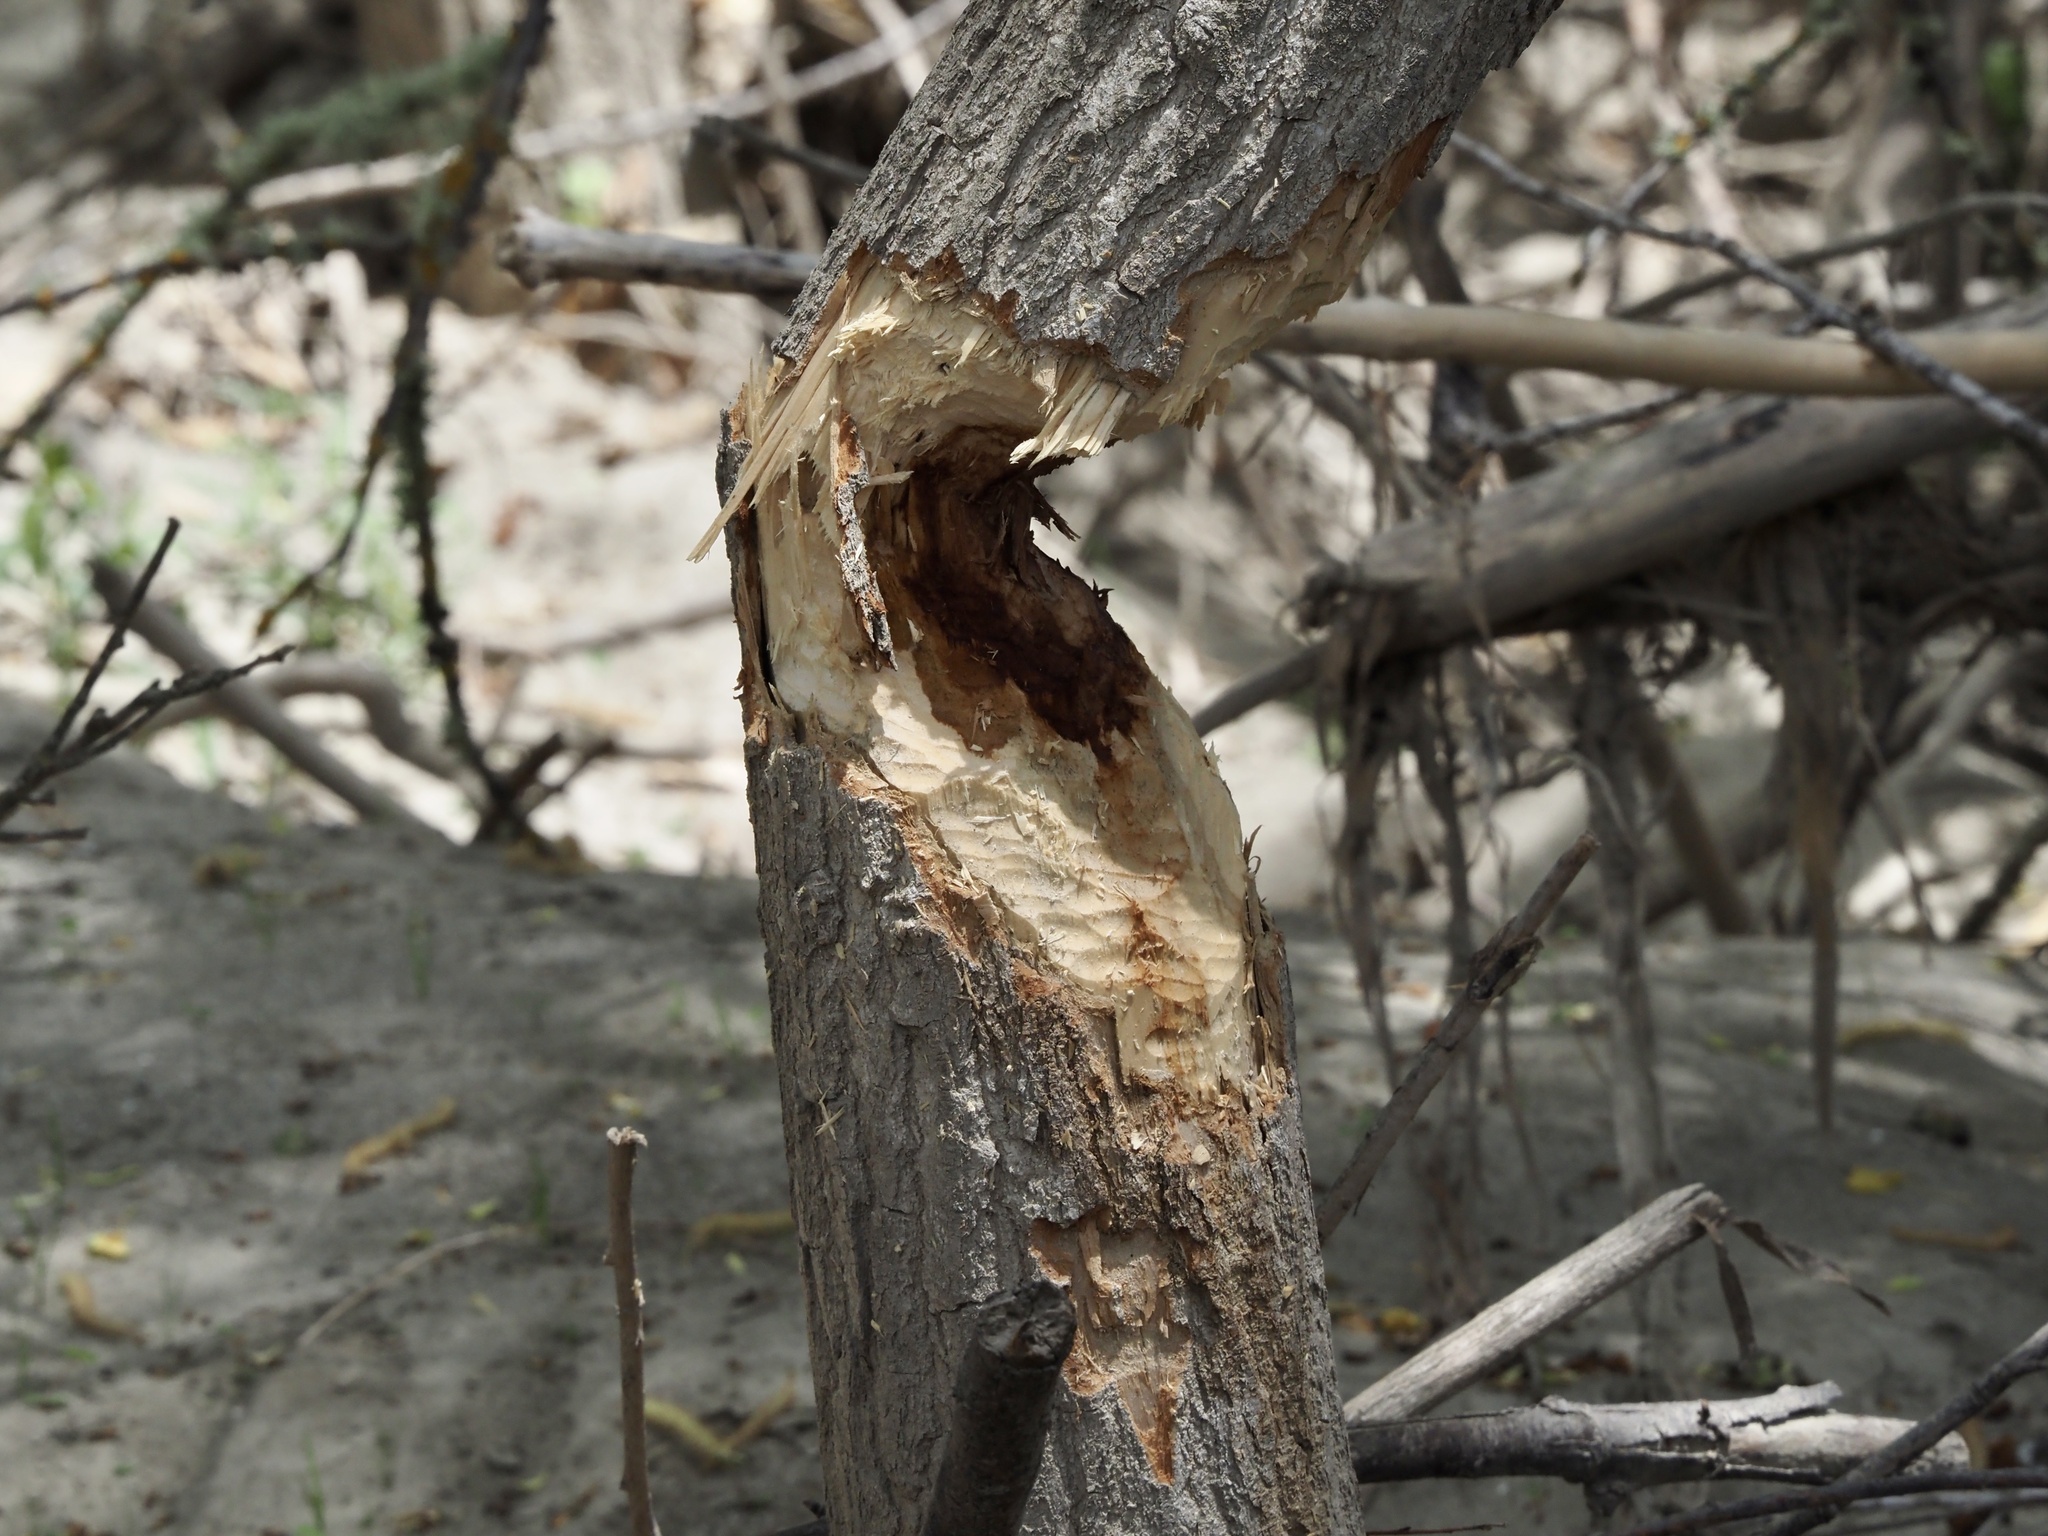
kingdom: Animalia
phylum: Chordata
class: Mammalia
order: Rodentia
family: Castoridae
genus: Castor
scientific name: Castor canadensis
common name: American beaver
